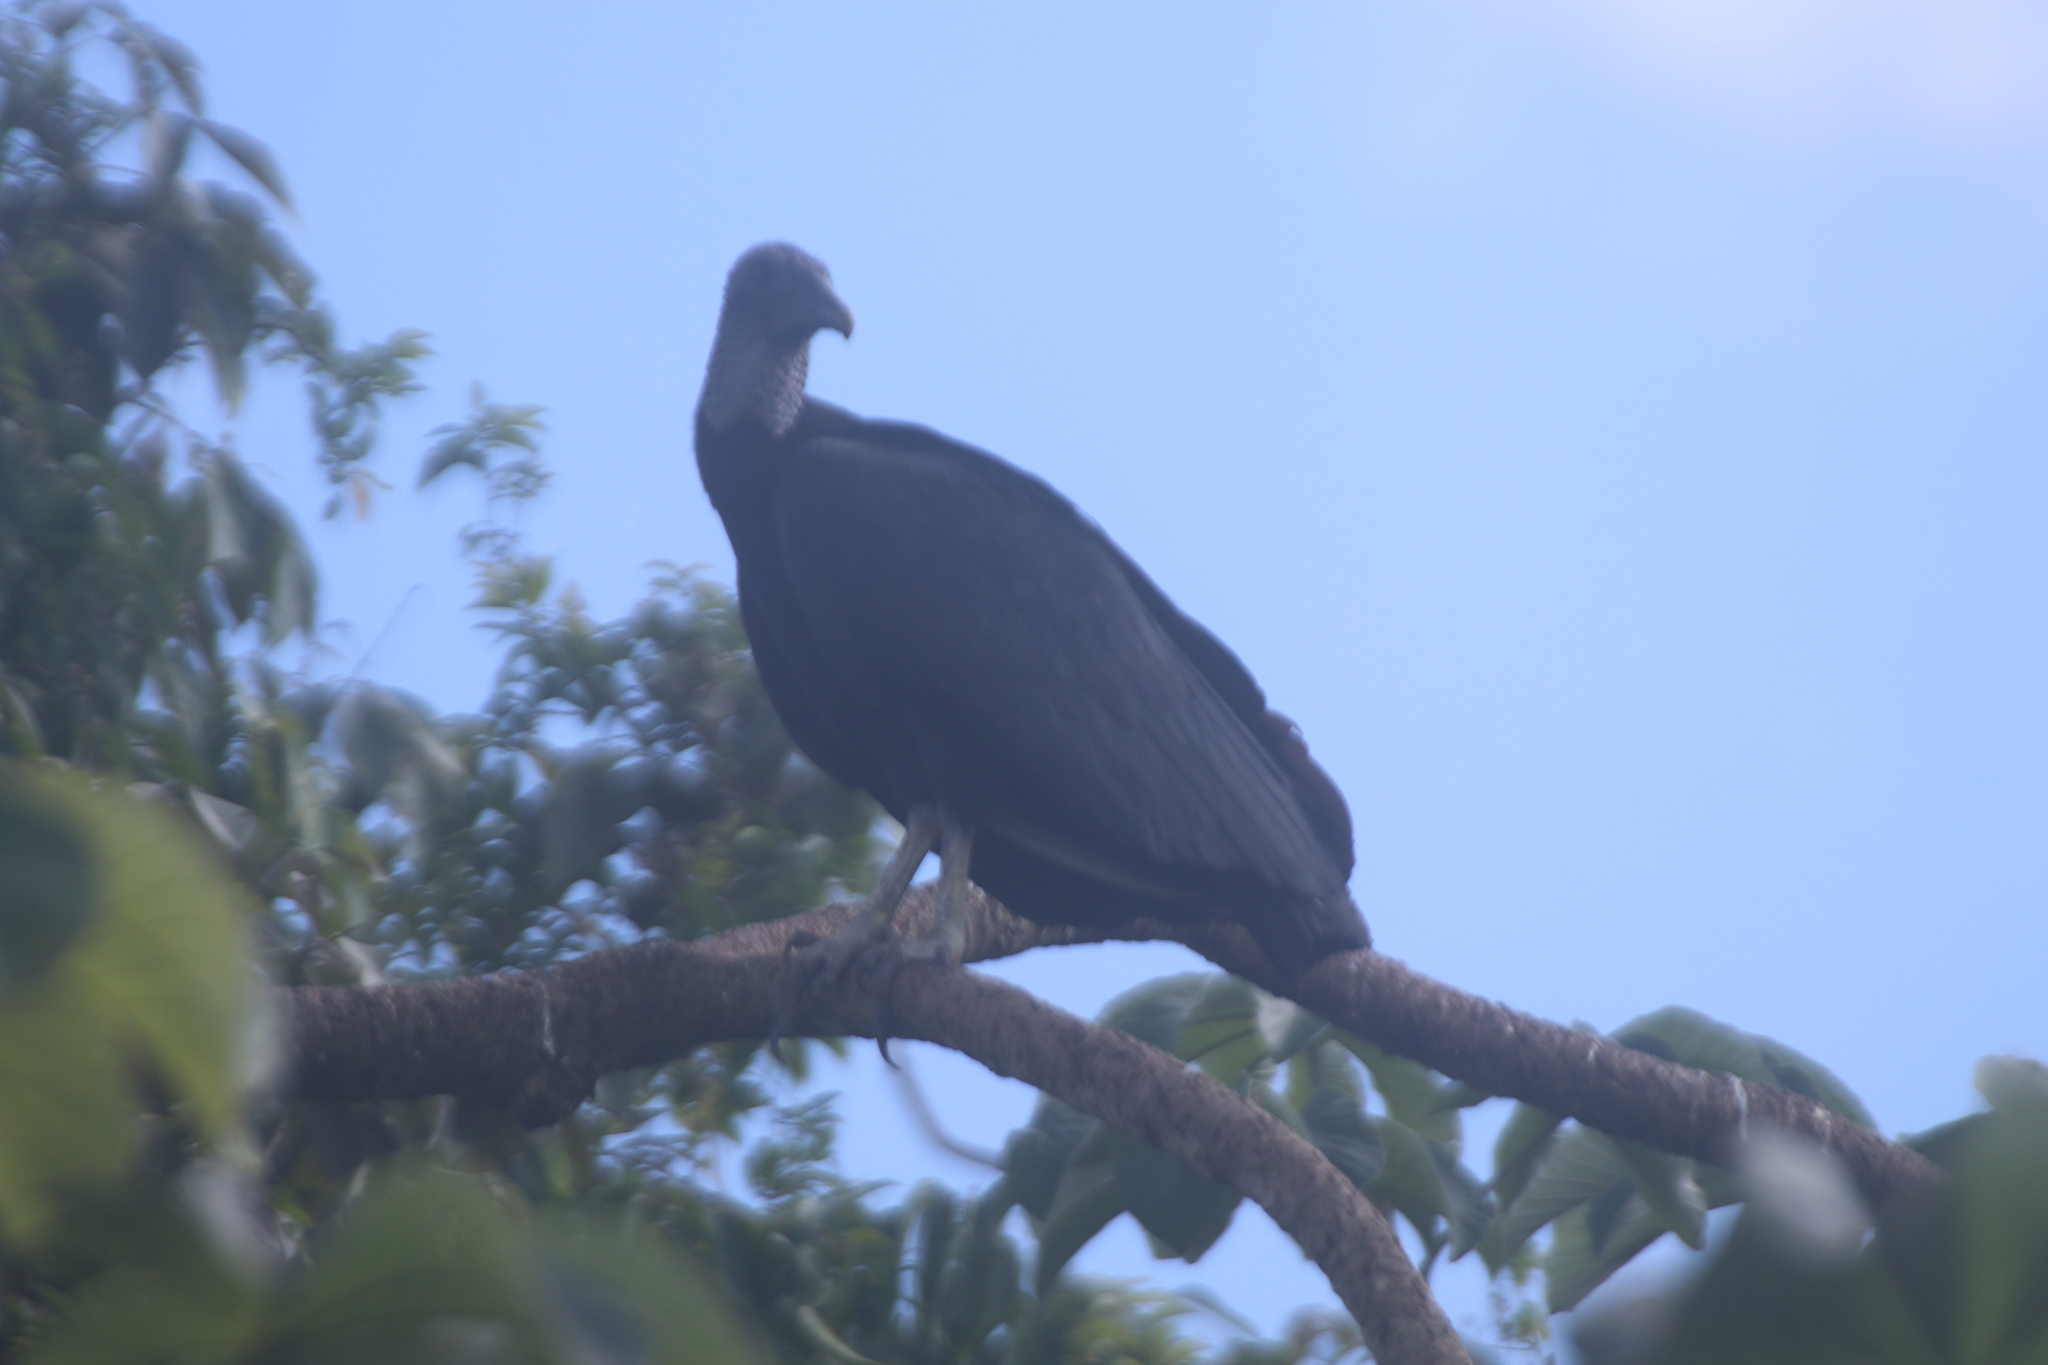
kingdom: Animalia
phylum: Chordata
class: Aves
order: Accipitriformes
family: Cathartidae
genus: Coragyps
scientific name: Coragyps atratus
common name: Black vulture
